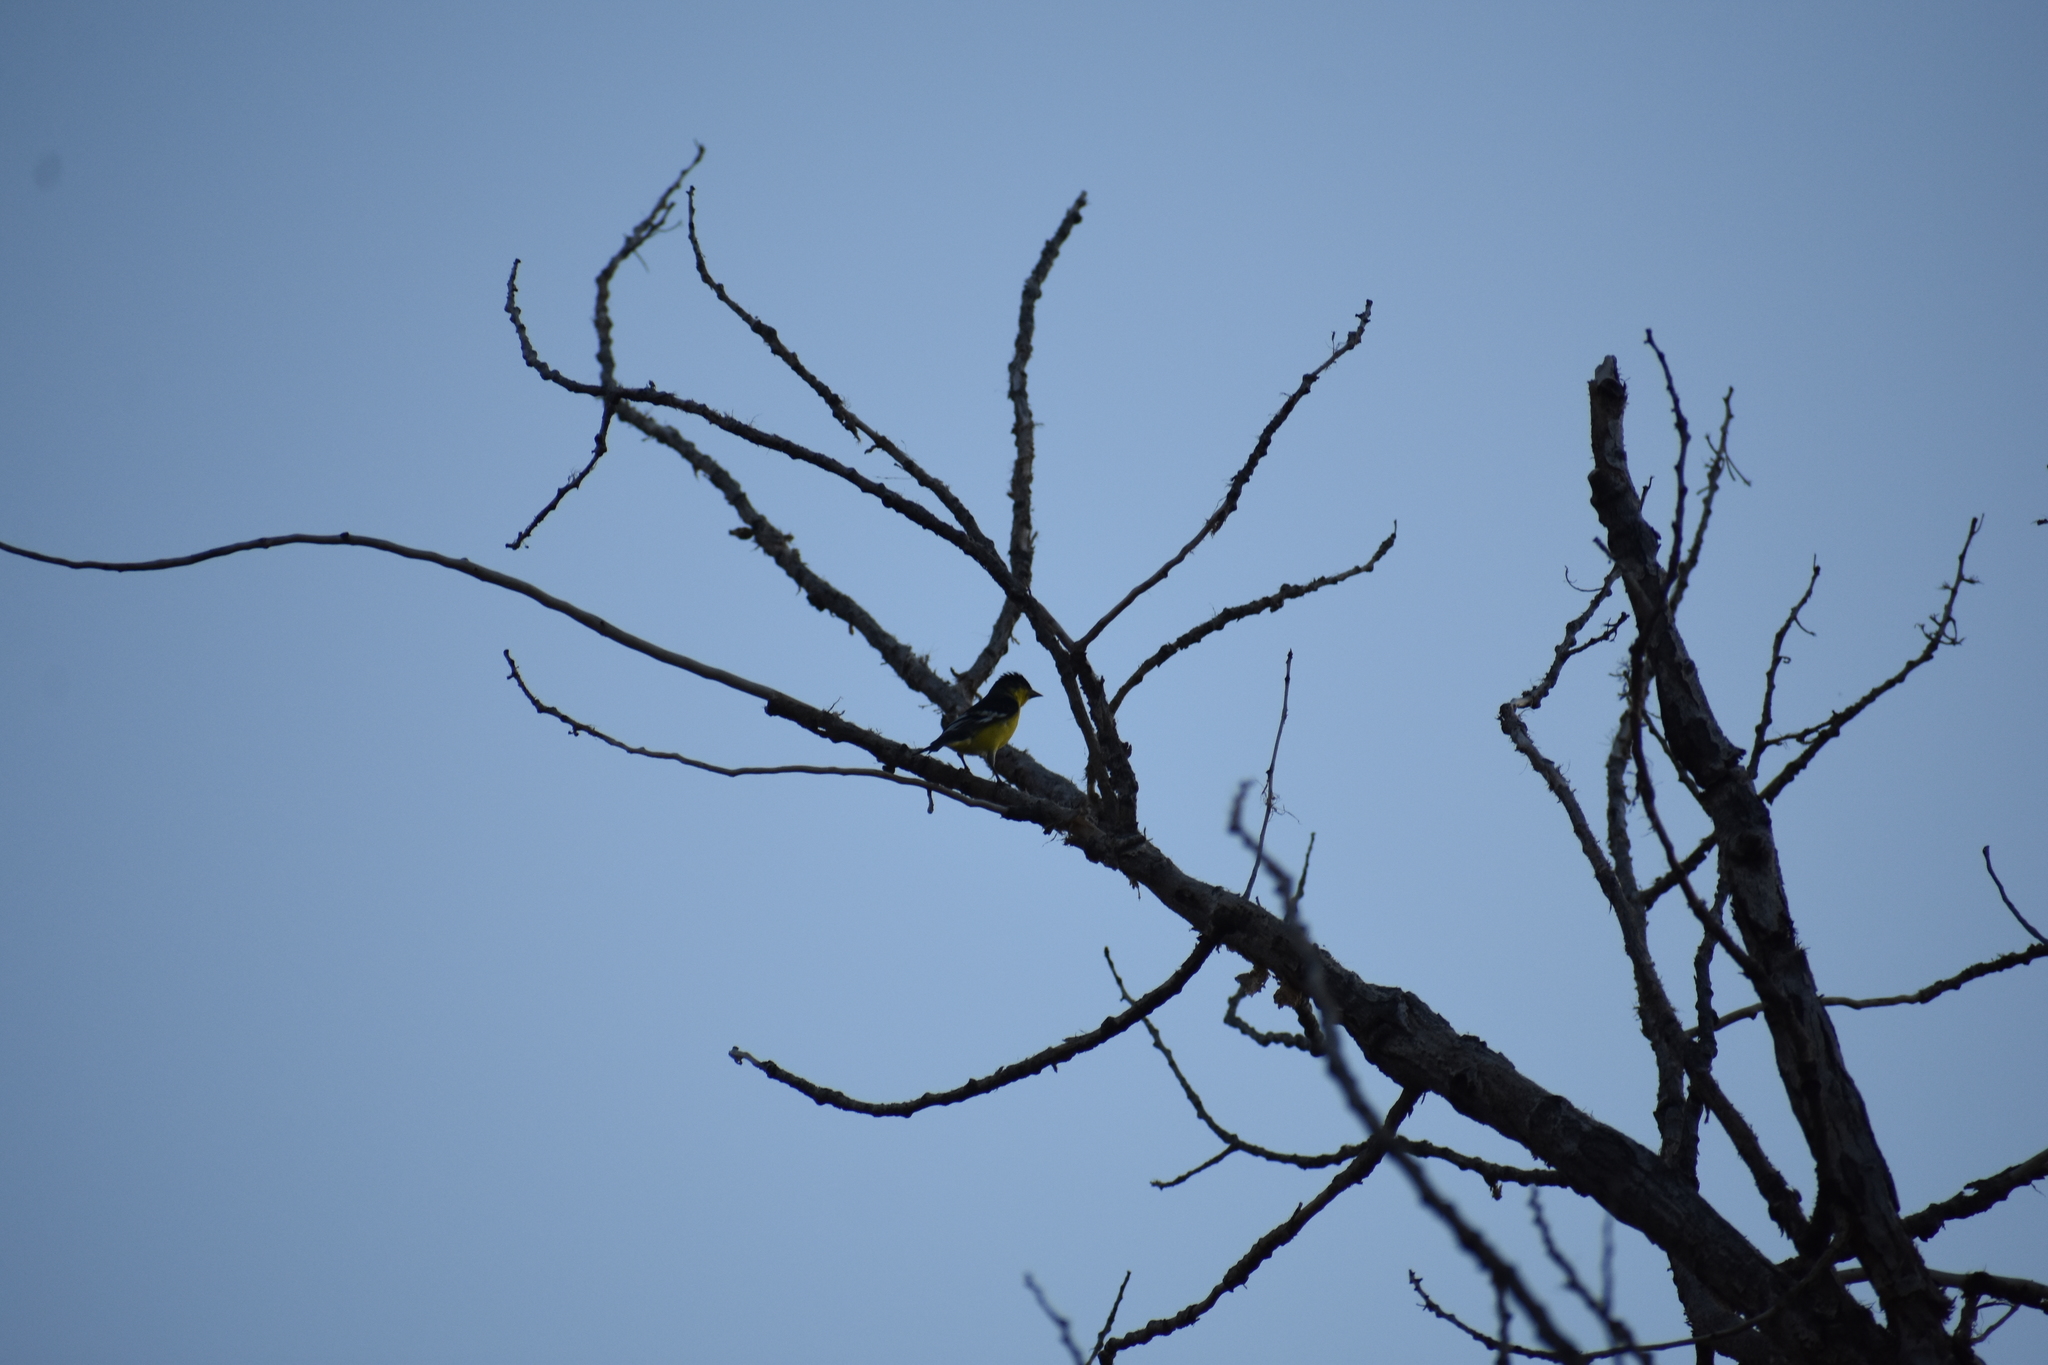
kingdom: Animalia
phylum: Chordata
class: Aves
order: Passeriformes
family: Fringillidae
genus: Spinus
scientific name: Spinus psaltria
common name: Lesser goldfinch
